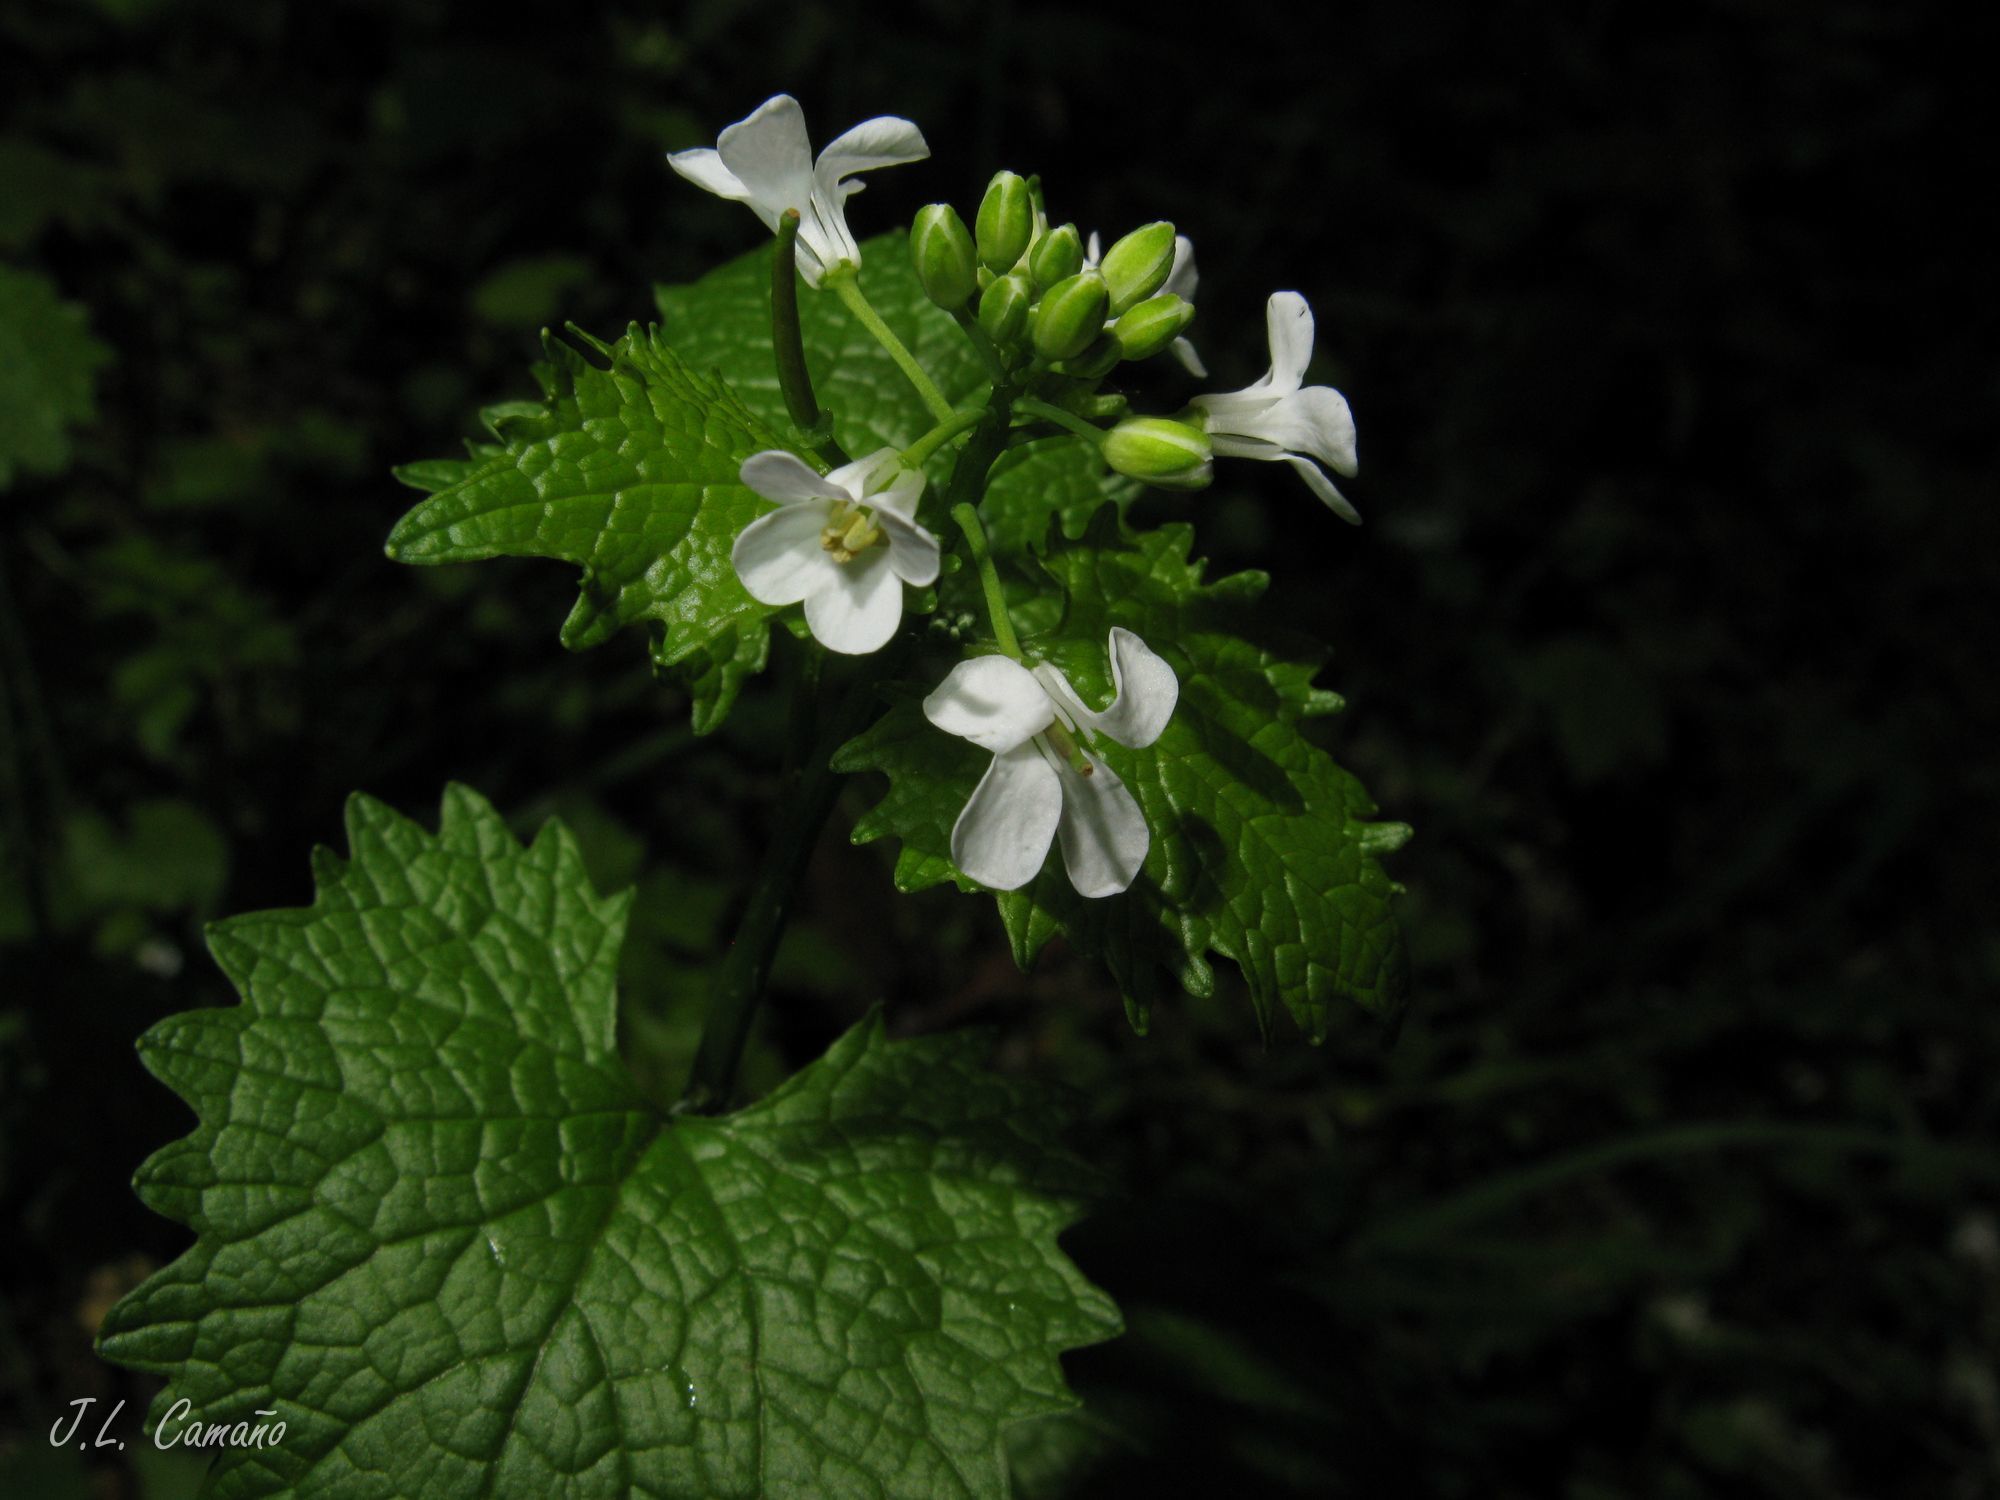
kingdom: Plantae
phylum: Tracheophyta
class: Magnoliopsida
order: Brassicales
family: Brassicaceae
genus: Alliaria
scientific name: Alliaria petiolata
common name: Garlic mustard
